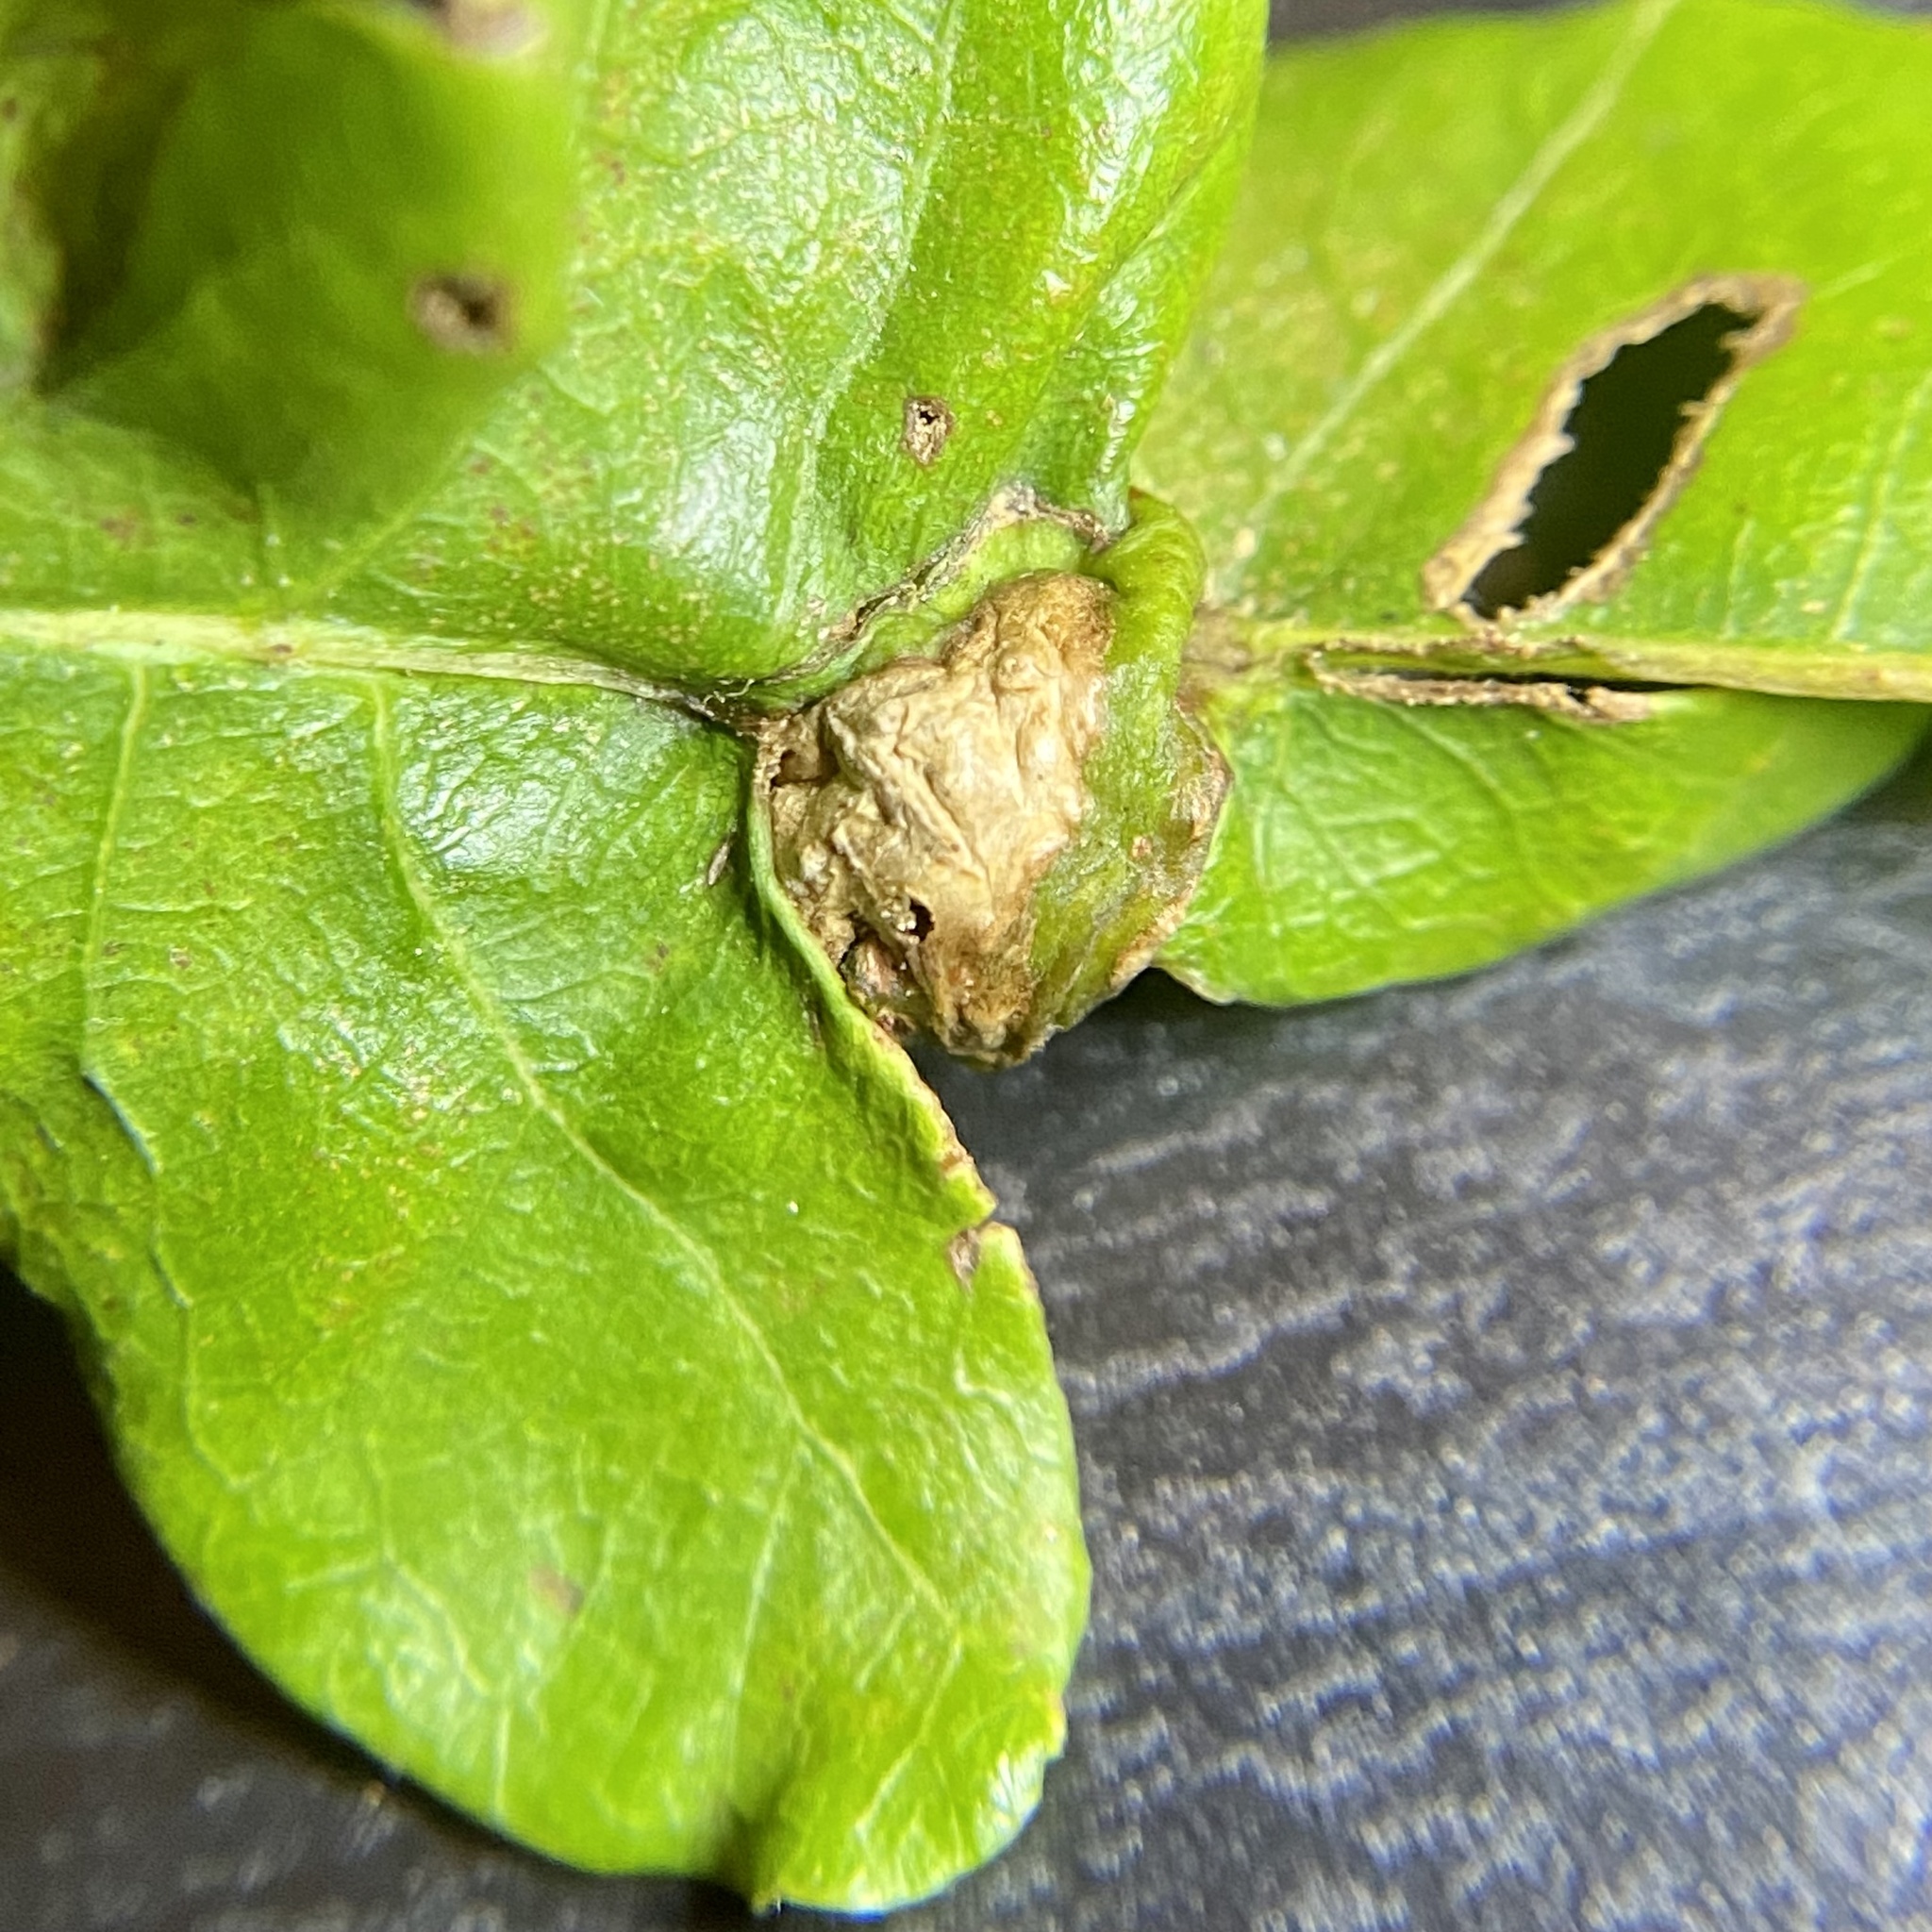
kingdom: Animalia
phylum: Arthropoda
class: Insecta
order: Hymenoptera
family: Cynipidae
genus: Andricus
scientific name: Andricus
